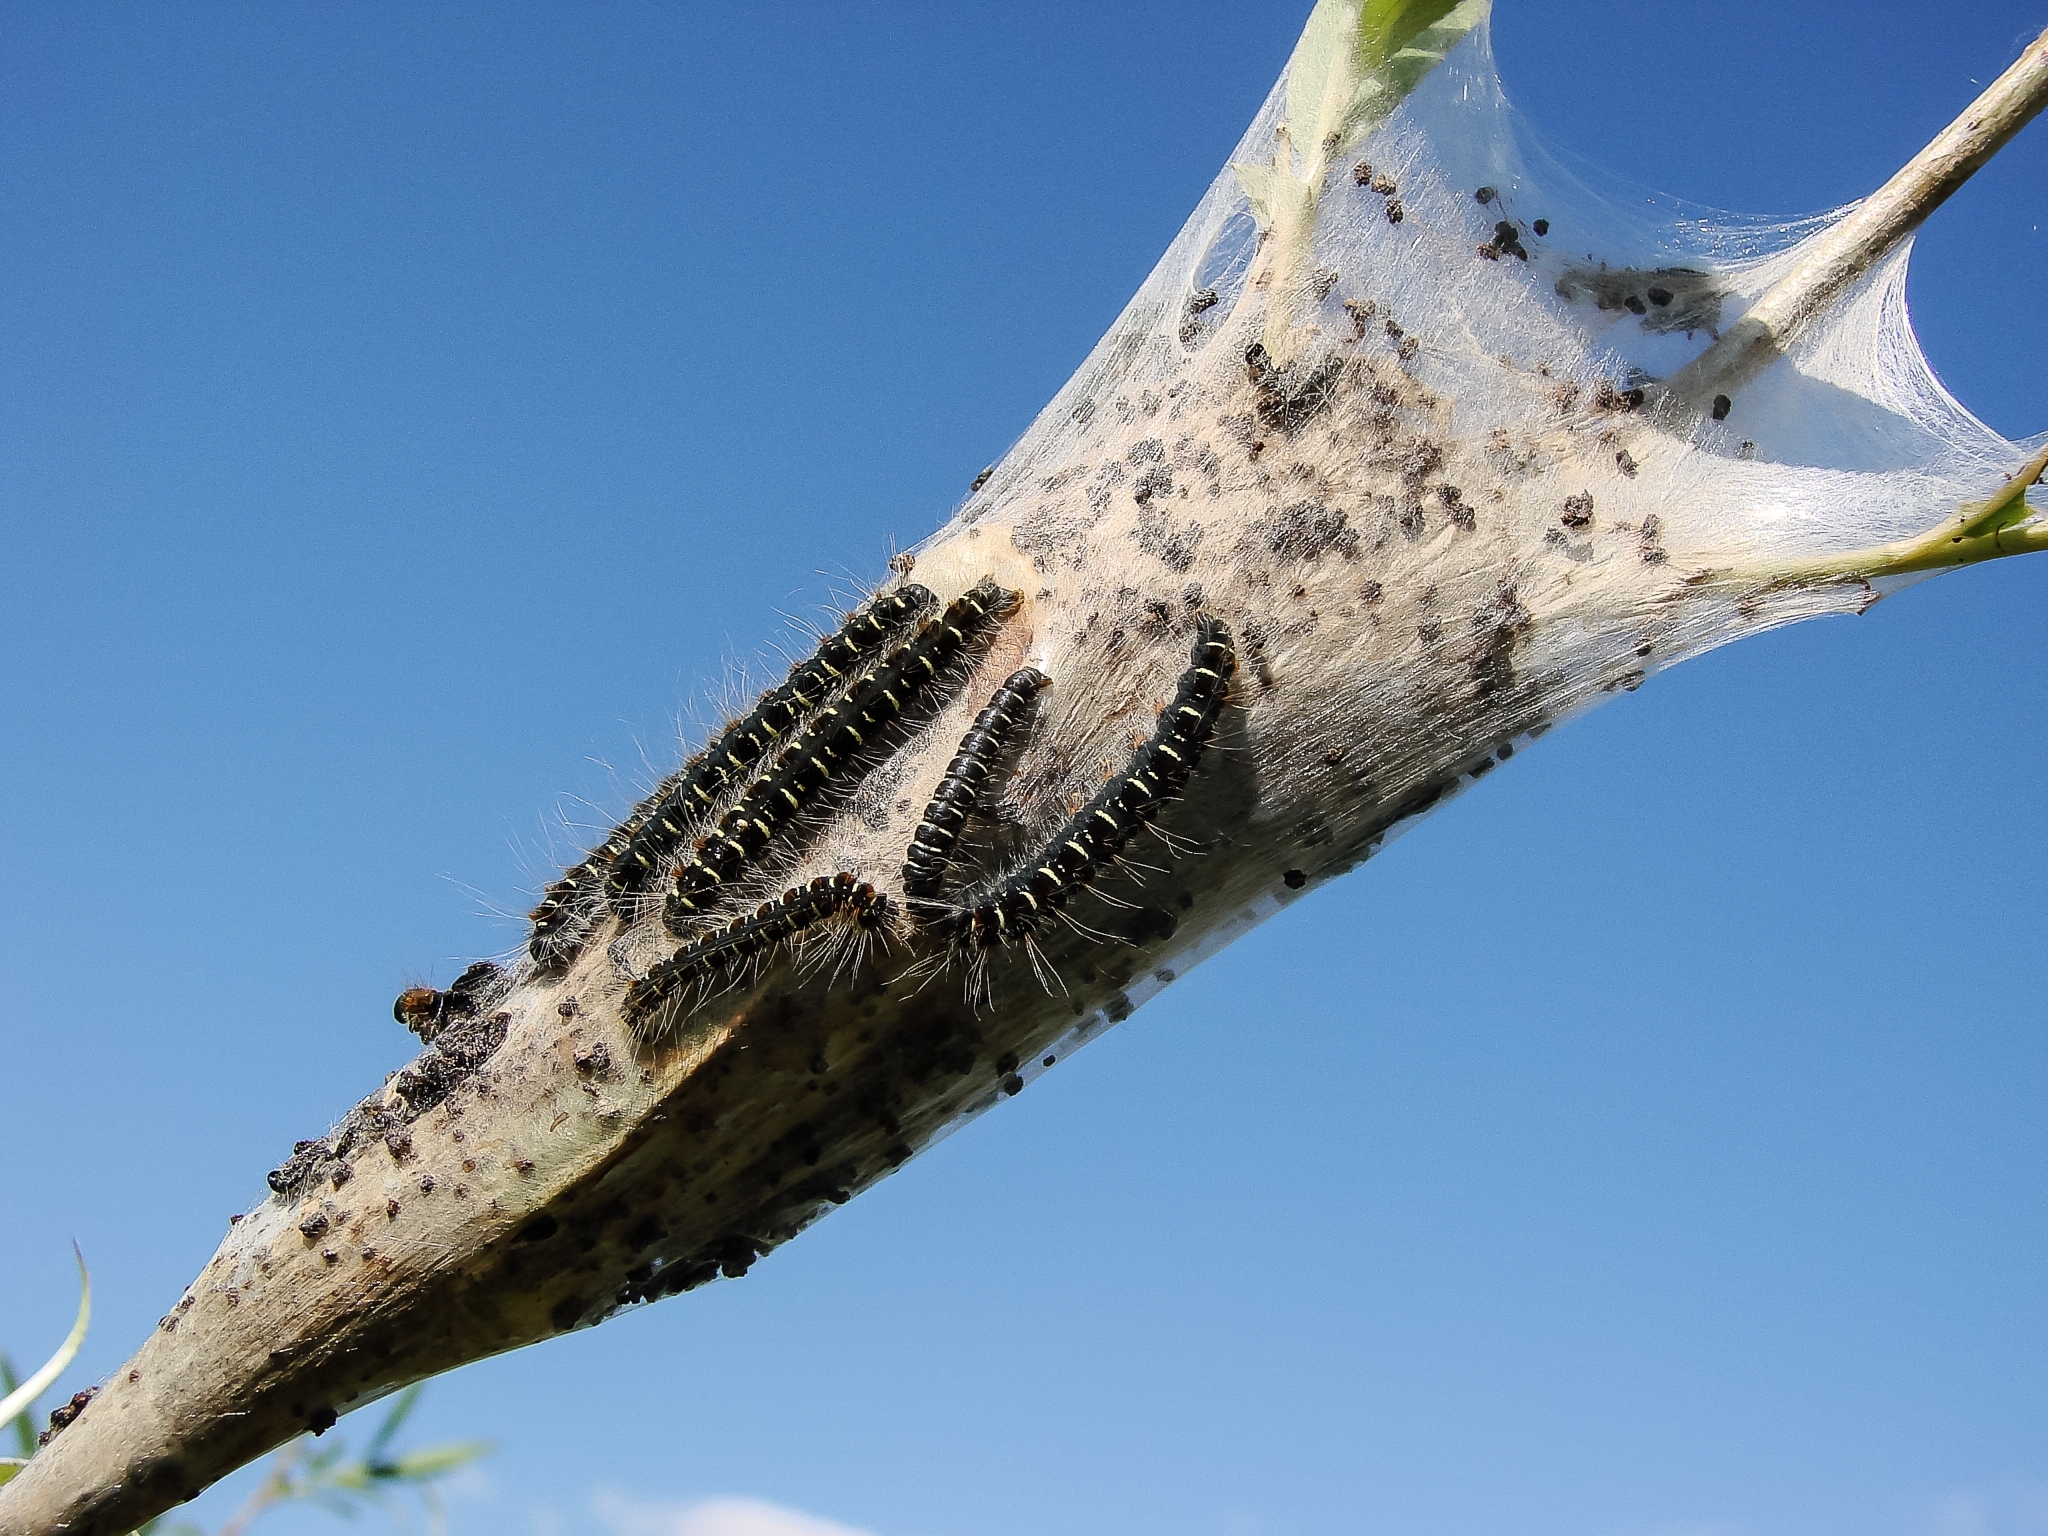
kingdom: Animalia
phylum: Arthropoda
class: Insecta
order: Lepidoptera
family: Lasiocampidae
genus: Eriogaster
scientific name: Eriogaster lanestris
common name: Small eggar
